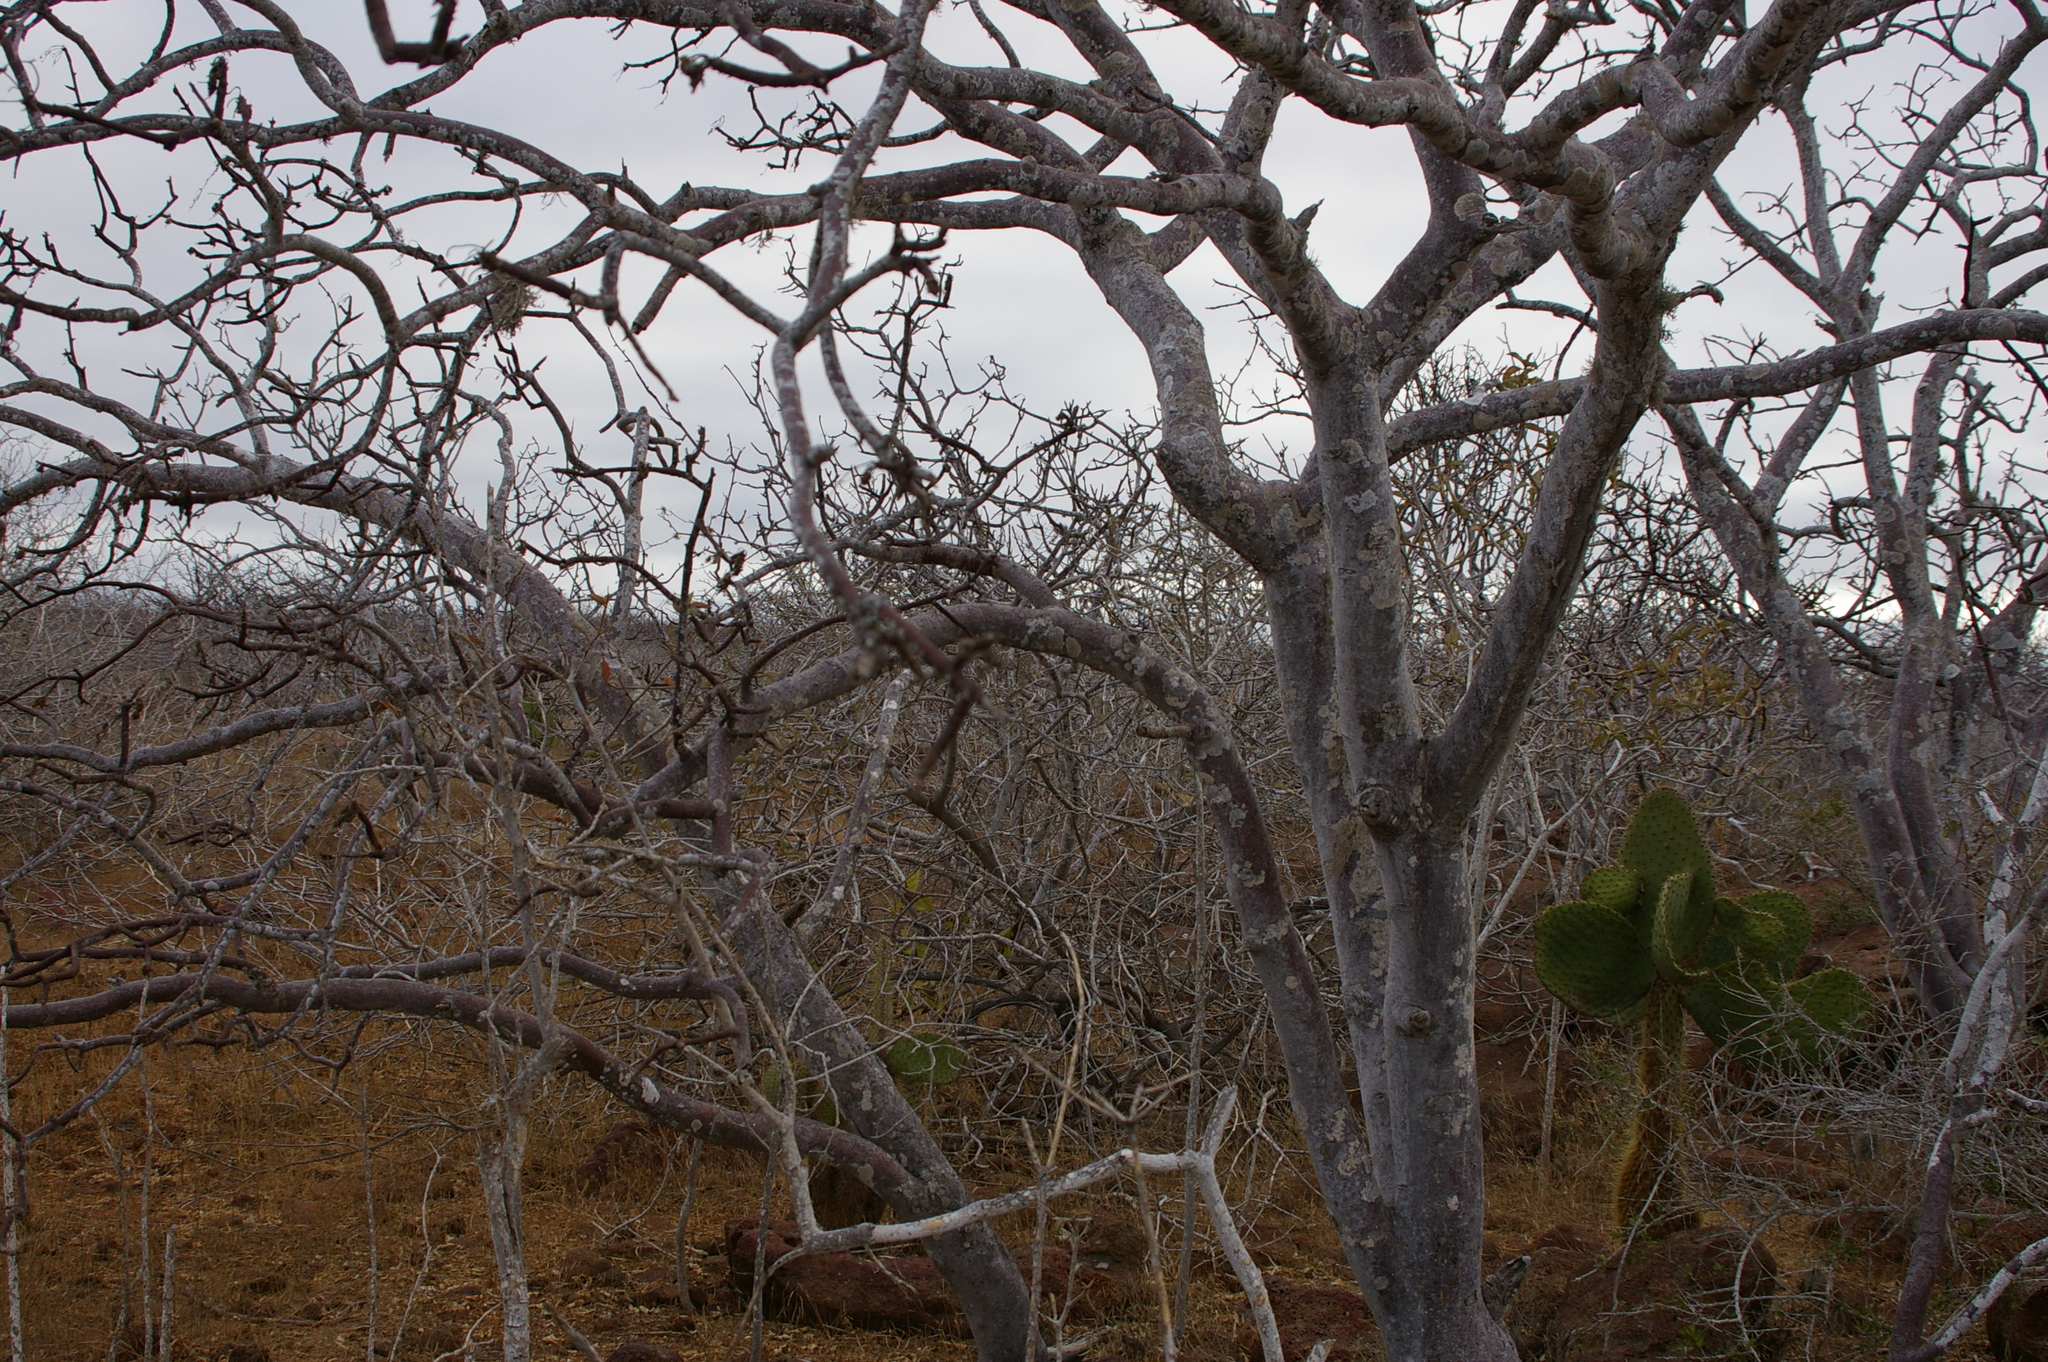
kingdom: Plantae
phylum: Tracheophyta
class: Magnoliopsida
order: Sapindales
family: Burseraceae
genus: Bursera
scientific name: Bursera graveolens
